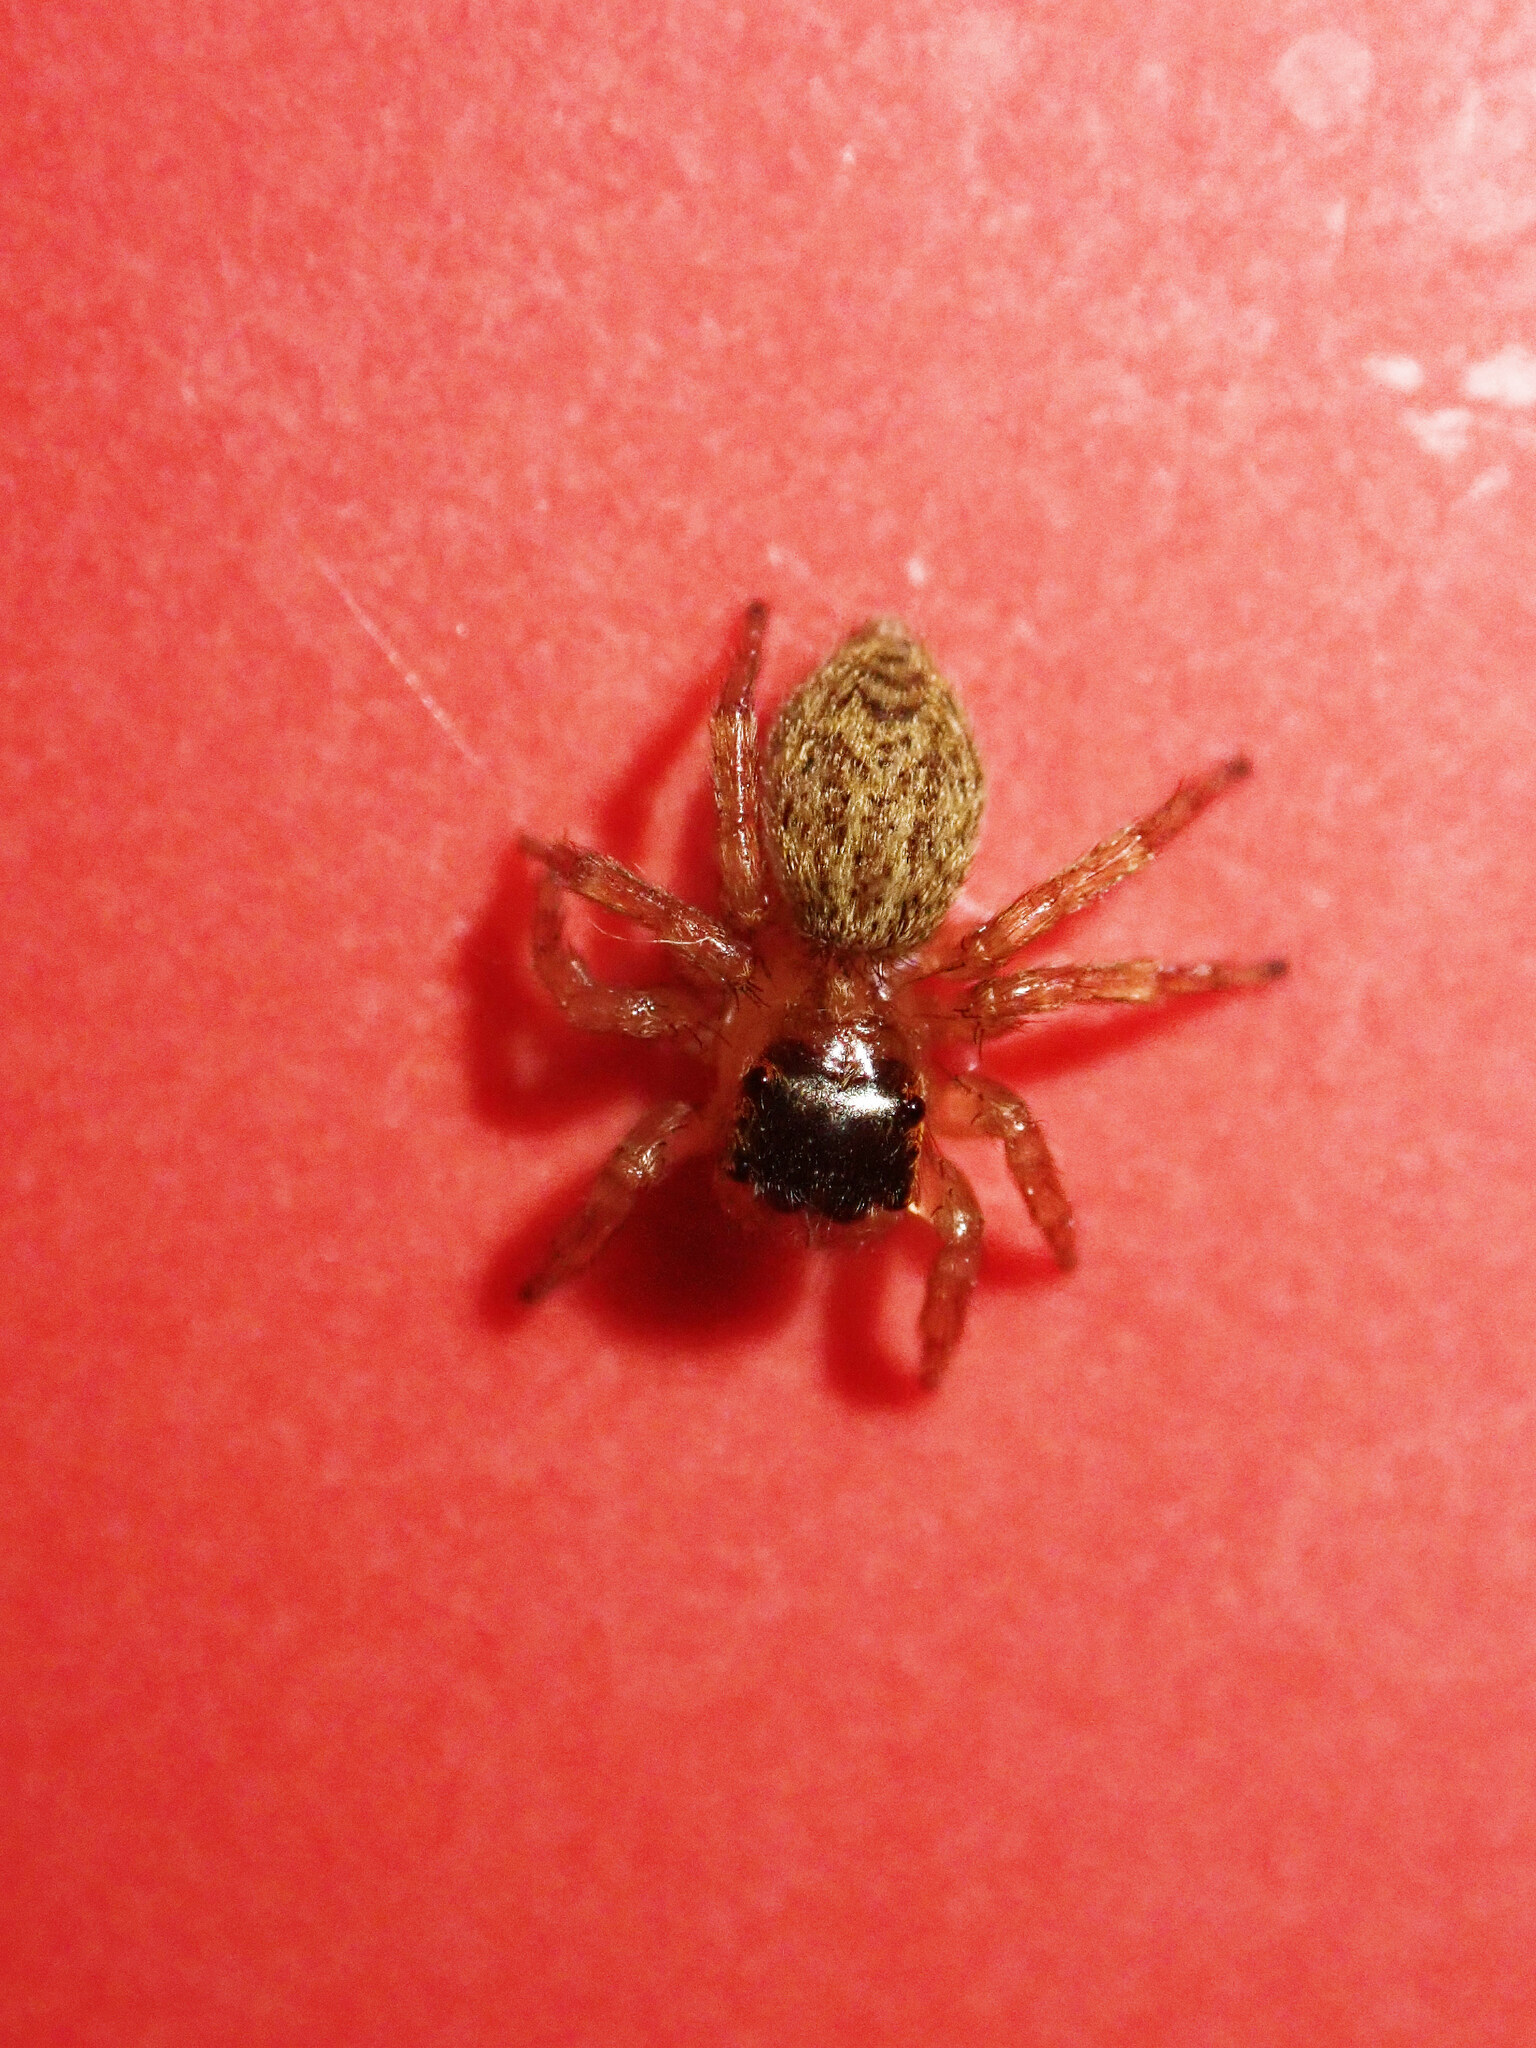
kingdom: Animalia
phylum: Arthropoda
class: Arachnida
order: Araneae
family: Salticidae
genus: Saitis
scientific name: Saitis barbipes
